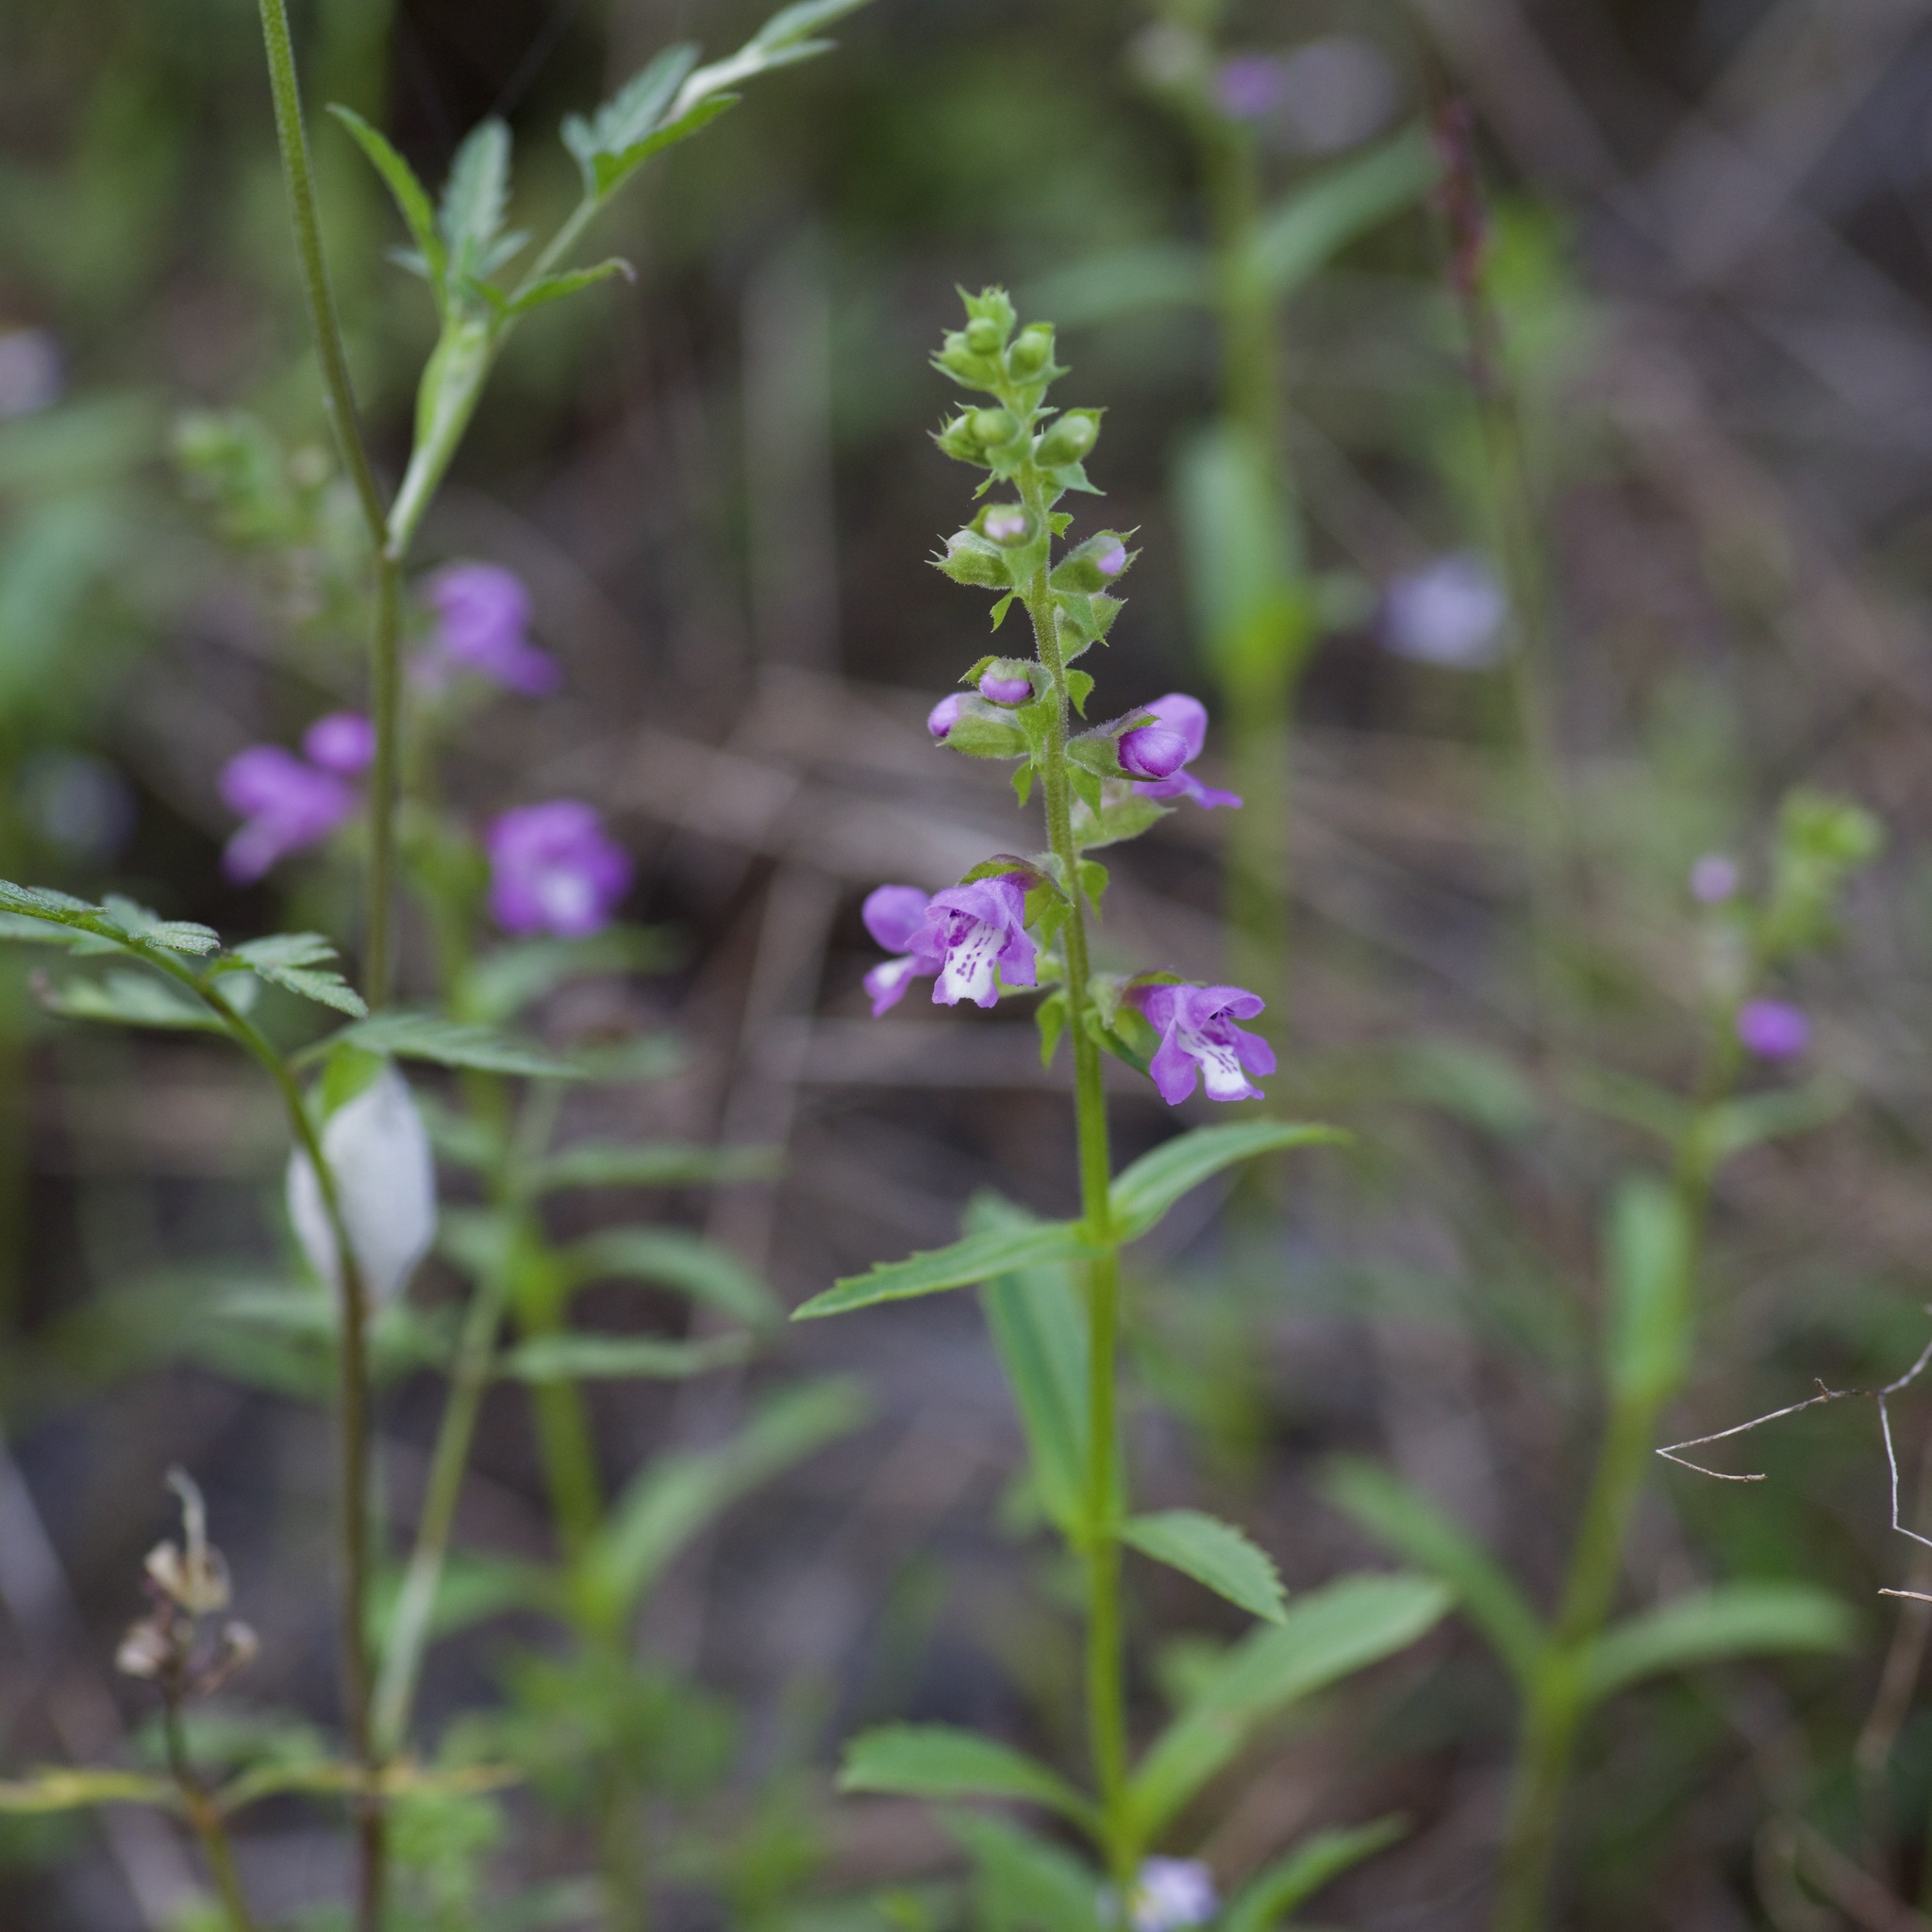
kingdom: Plantae
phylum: Tracheophyta
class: Magnoliopsida
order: Lamiales
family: Lamiaceae
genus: Warnockia
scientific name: Warnockia scutellarioides
